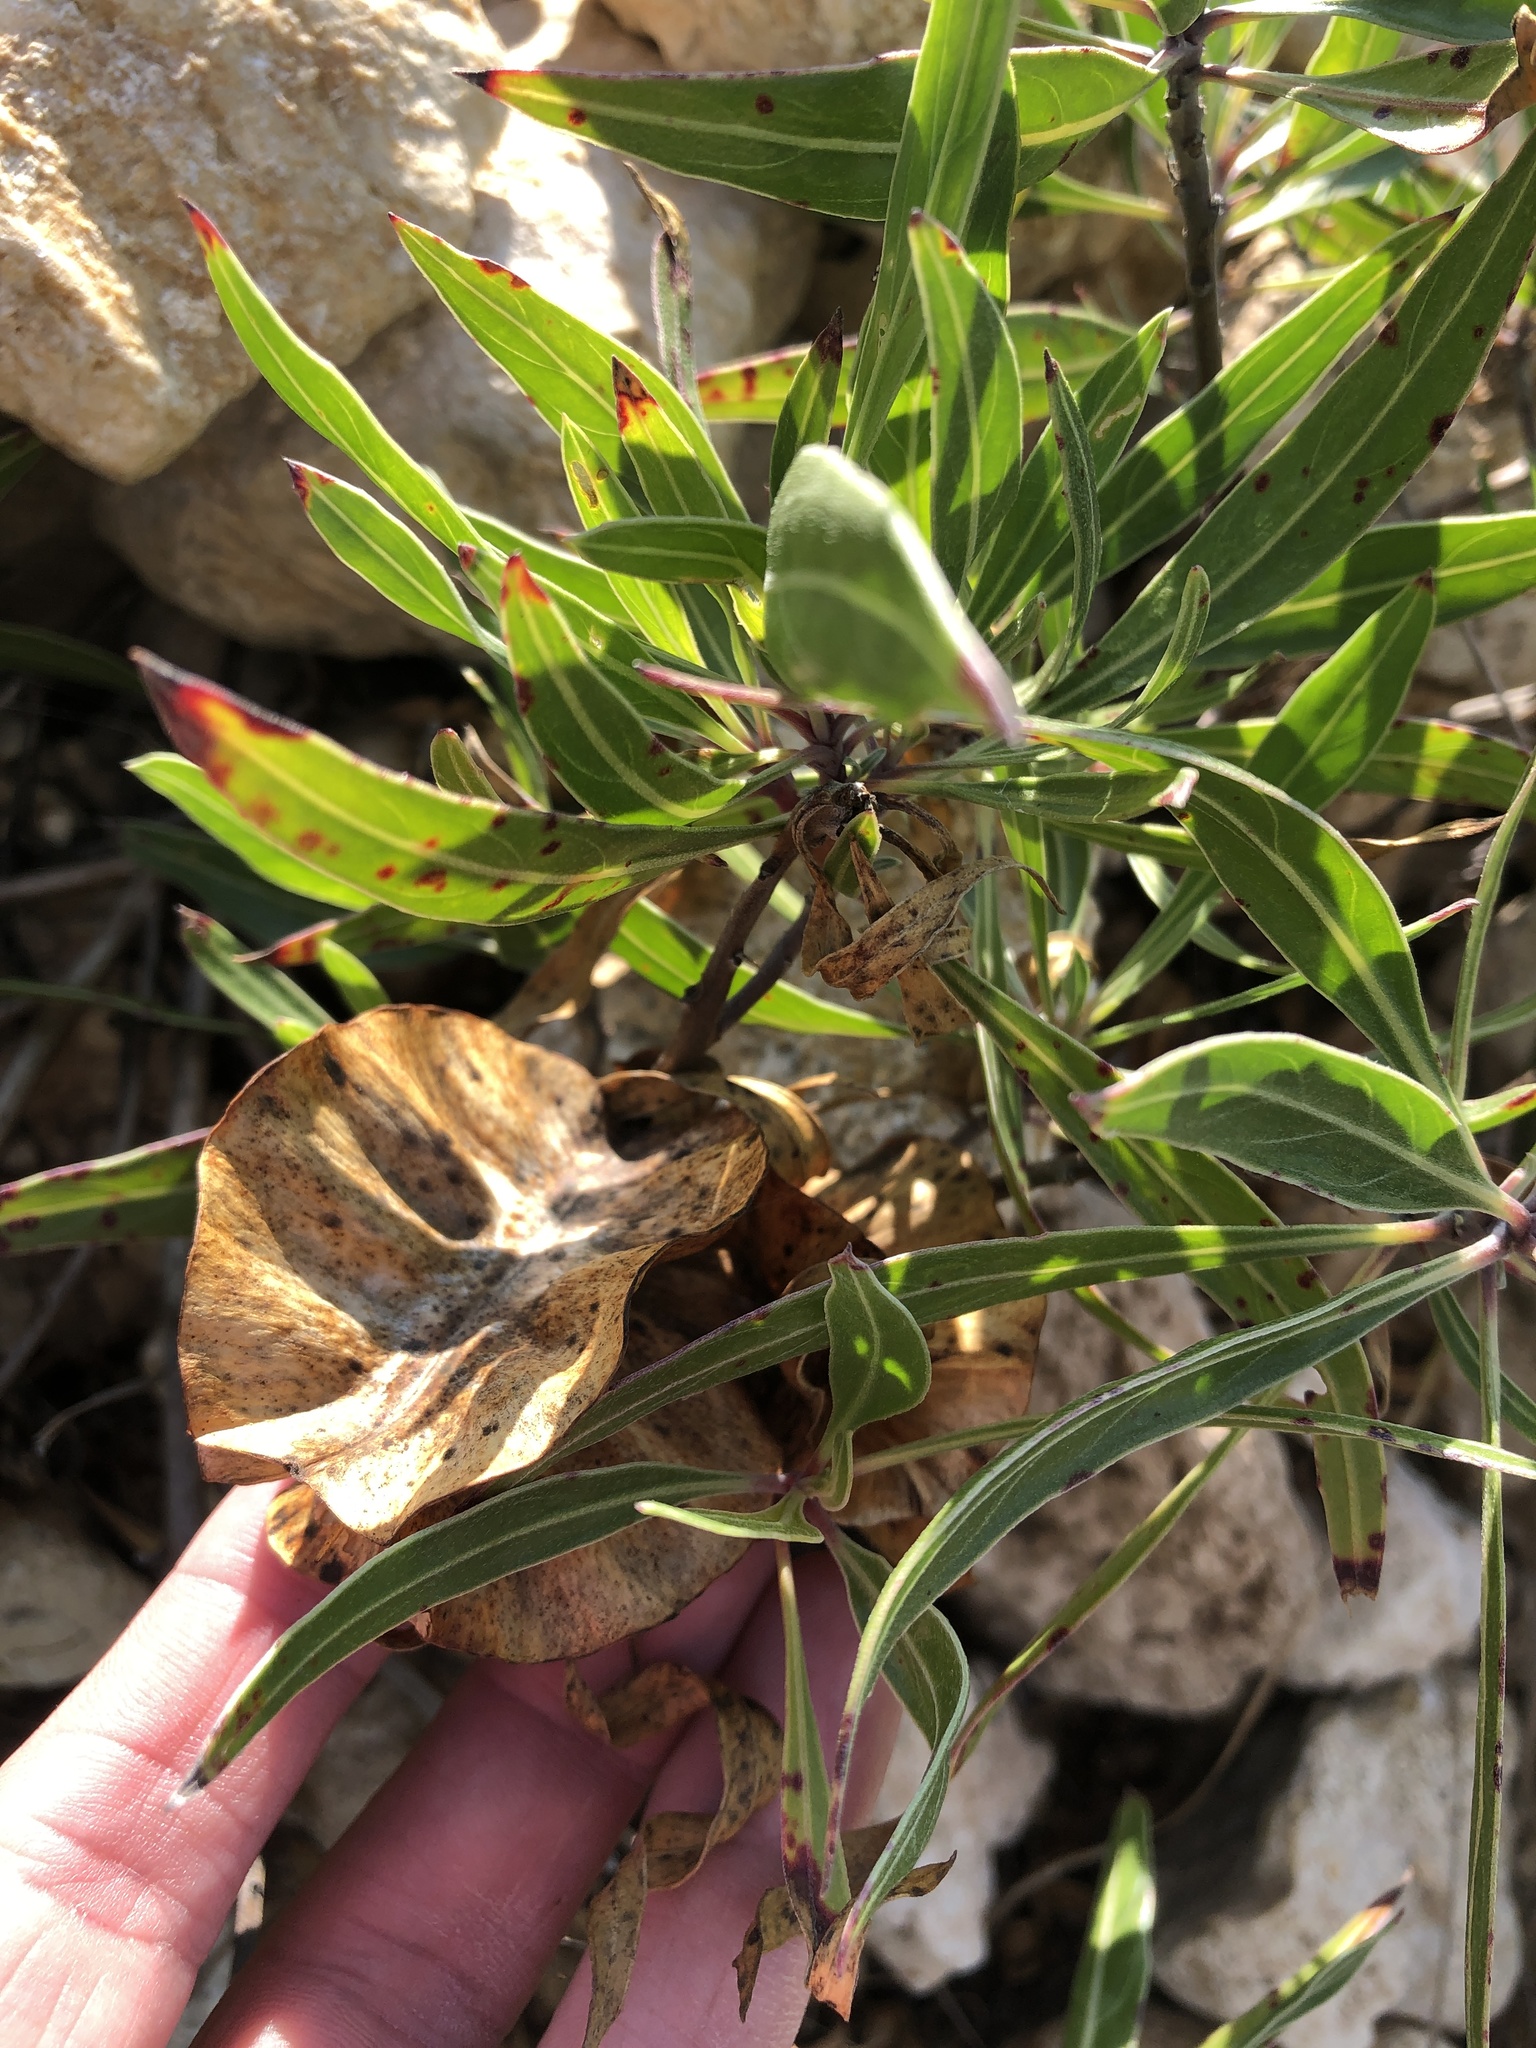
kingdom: Plantae
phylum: Tracheophyta
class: Magnoliopsida
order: Myrtales
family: Onagraceae
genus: Oenothera
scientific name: Oenothera macrocarpa
